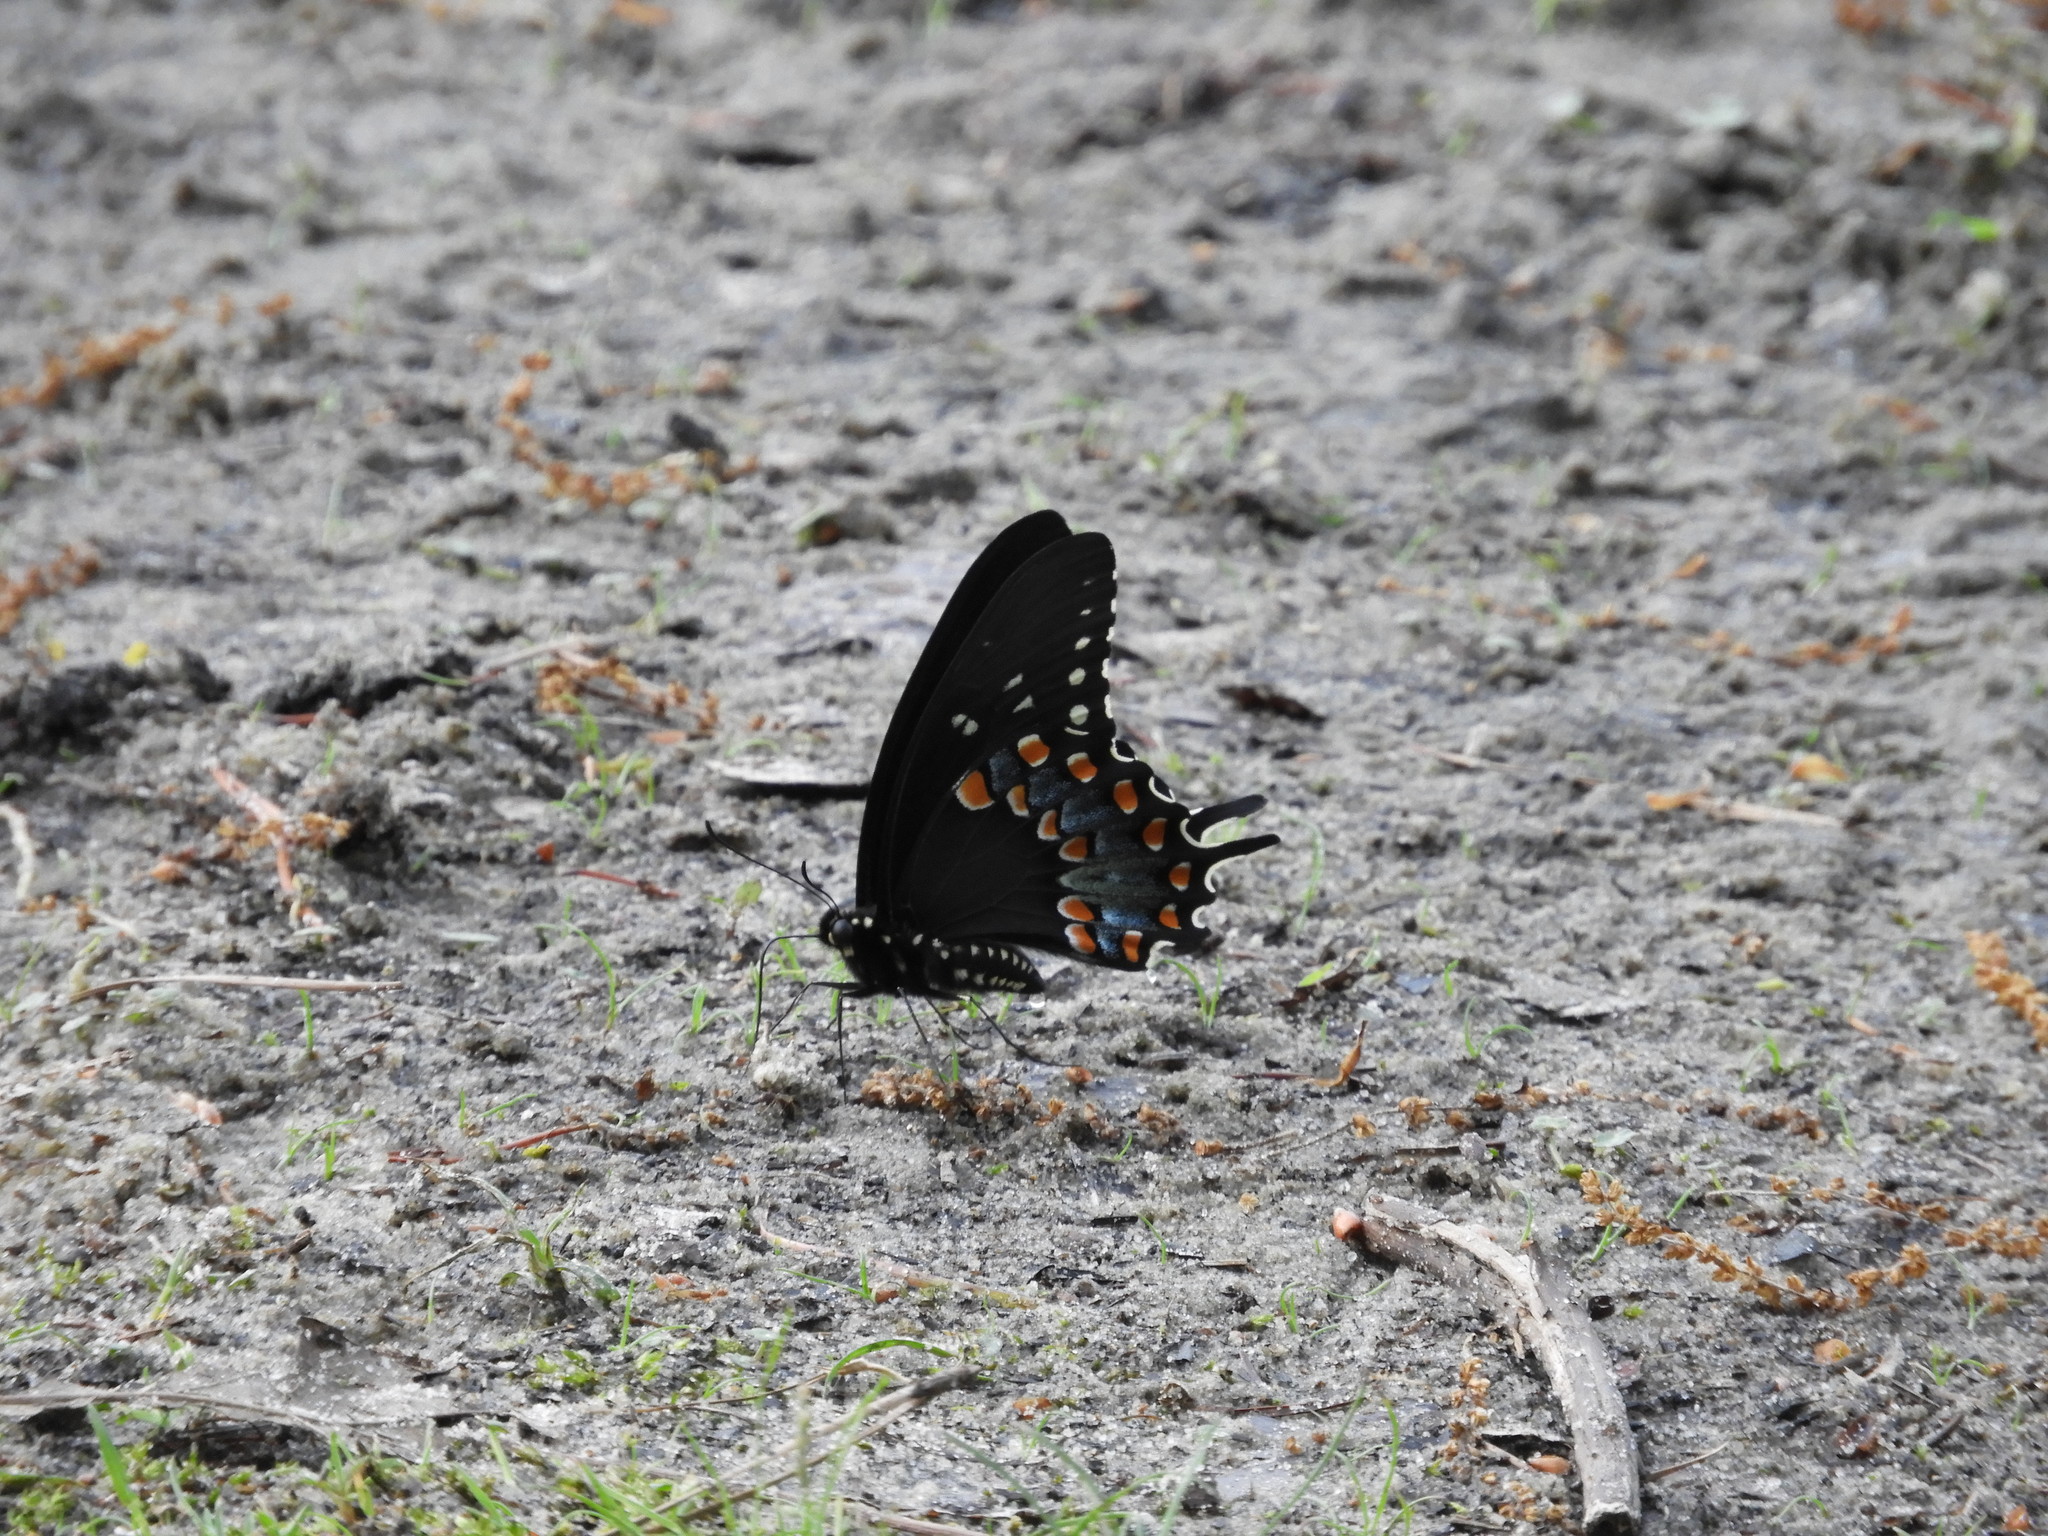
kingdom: Animalia
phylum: Arthropoda
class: Insecta
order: Lepidoptera
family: Papilionidae
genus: Papilio
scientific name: Papilio troilus
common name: Spicebush swallowtail
